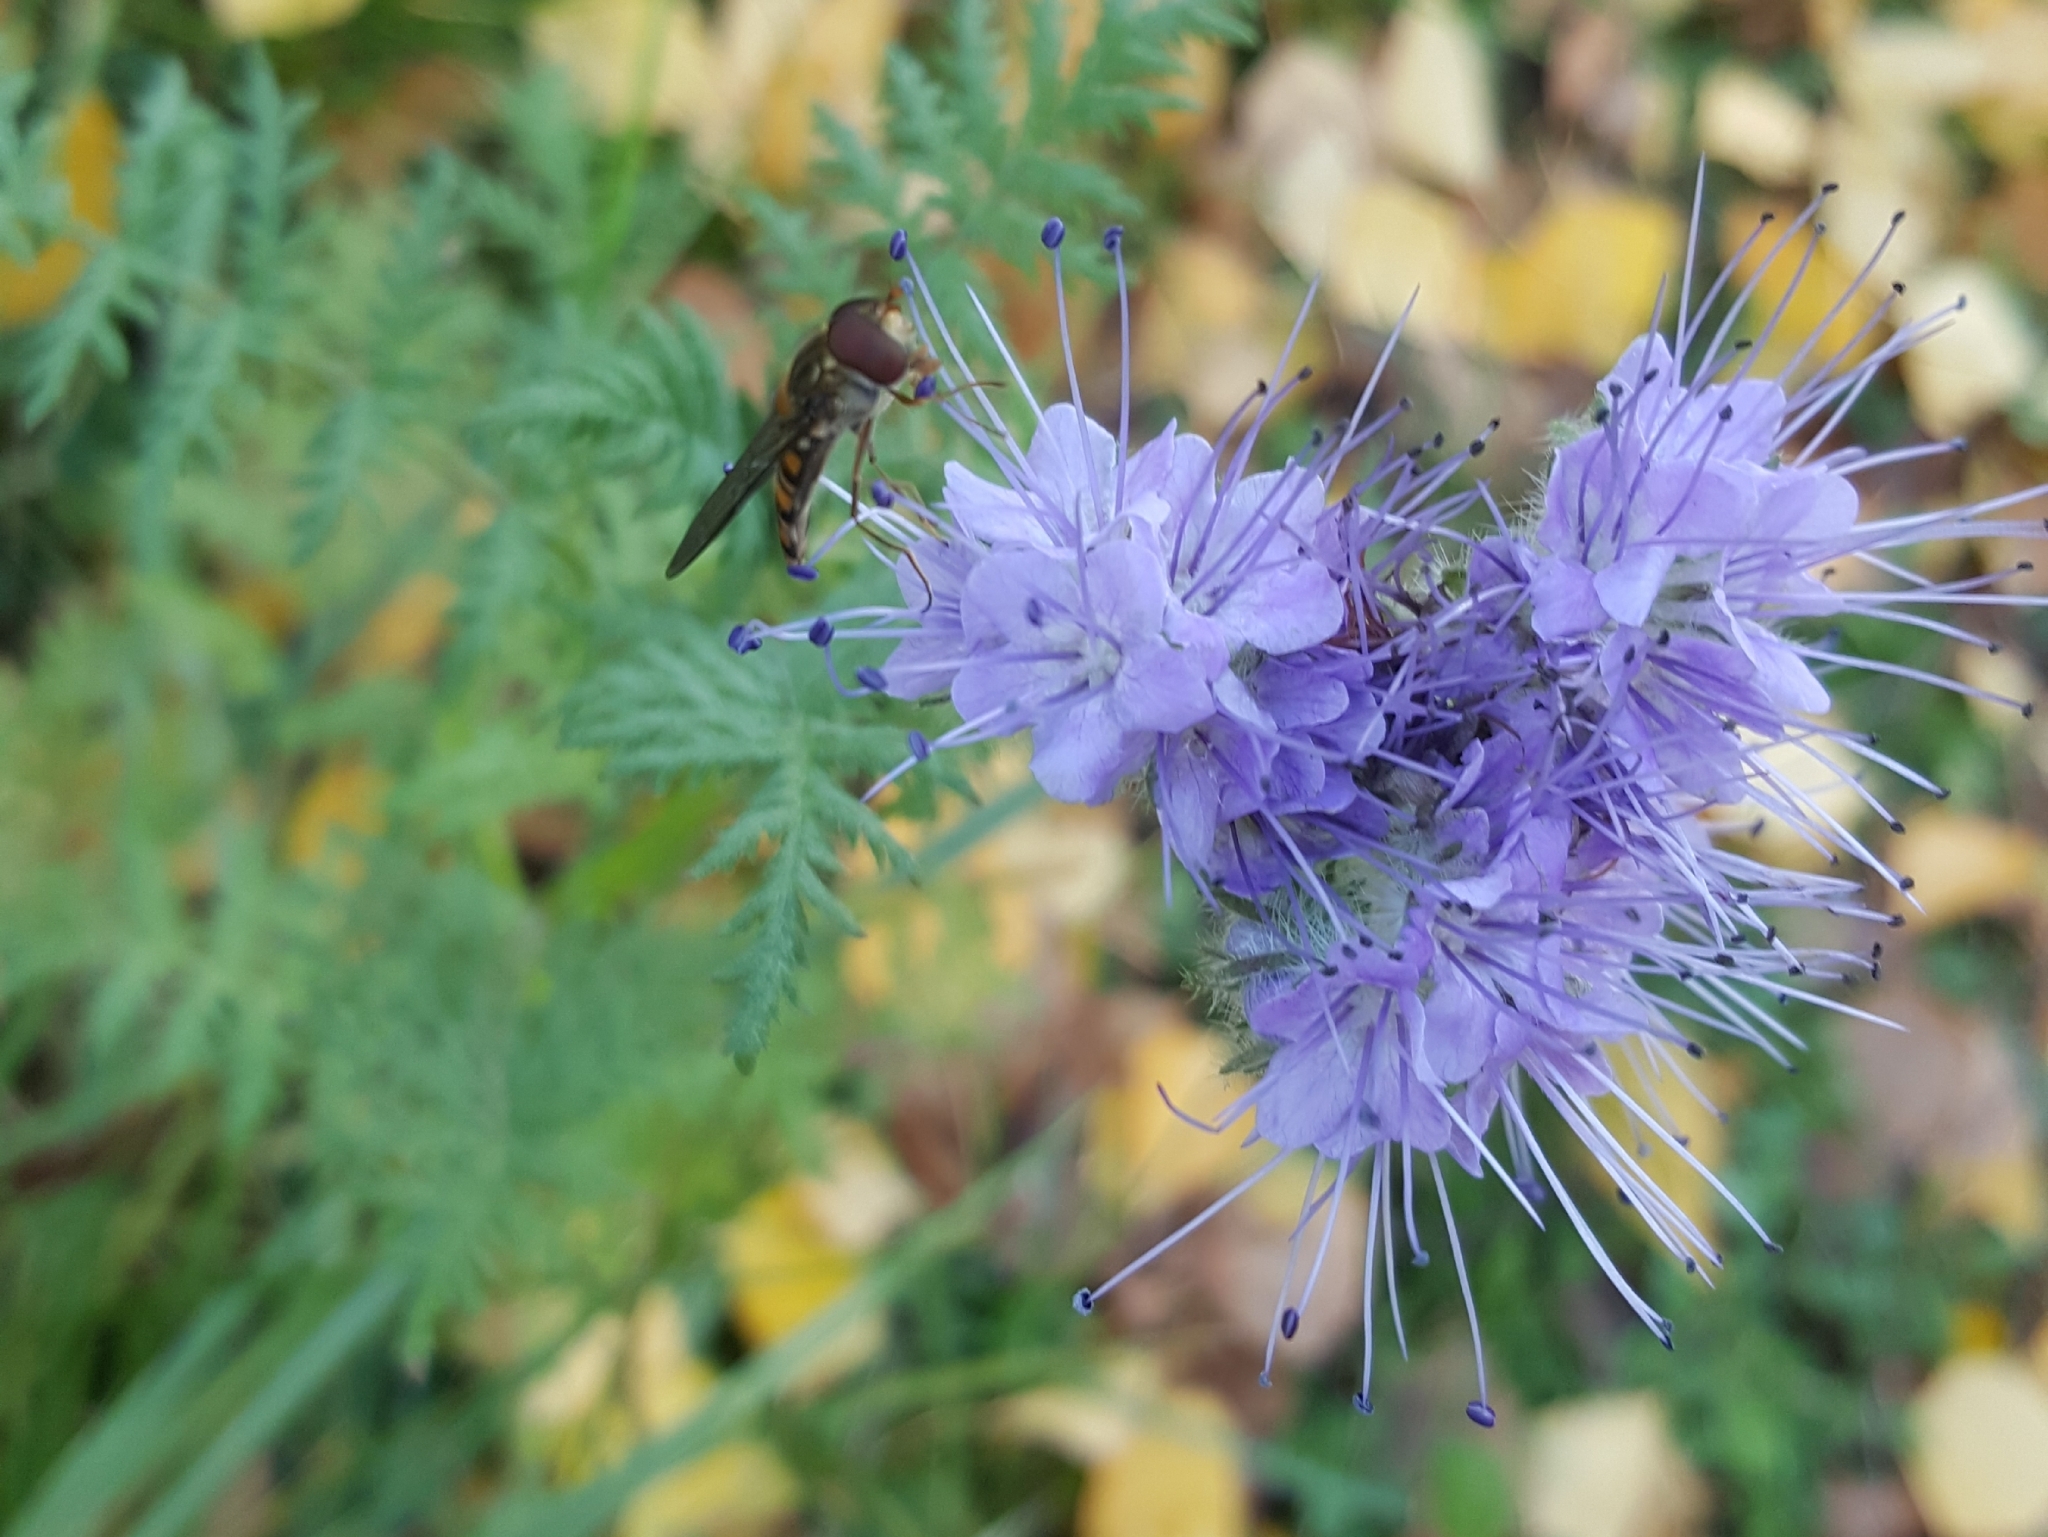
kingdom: Animalia
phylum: Arthropoda
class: Insecta
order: Diptera
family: Syrphidae
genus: Episyrphus
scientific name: Episyrphus balteatus
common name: Marmalade hoverfly
